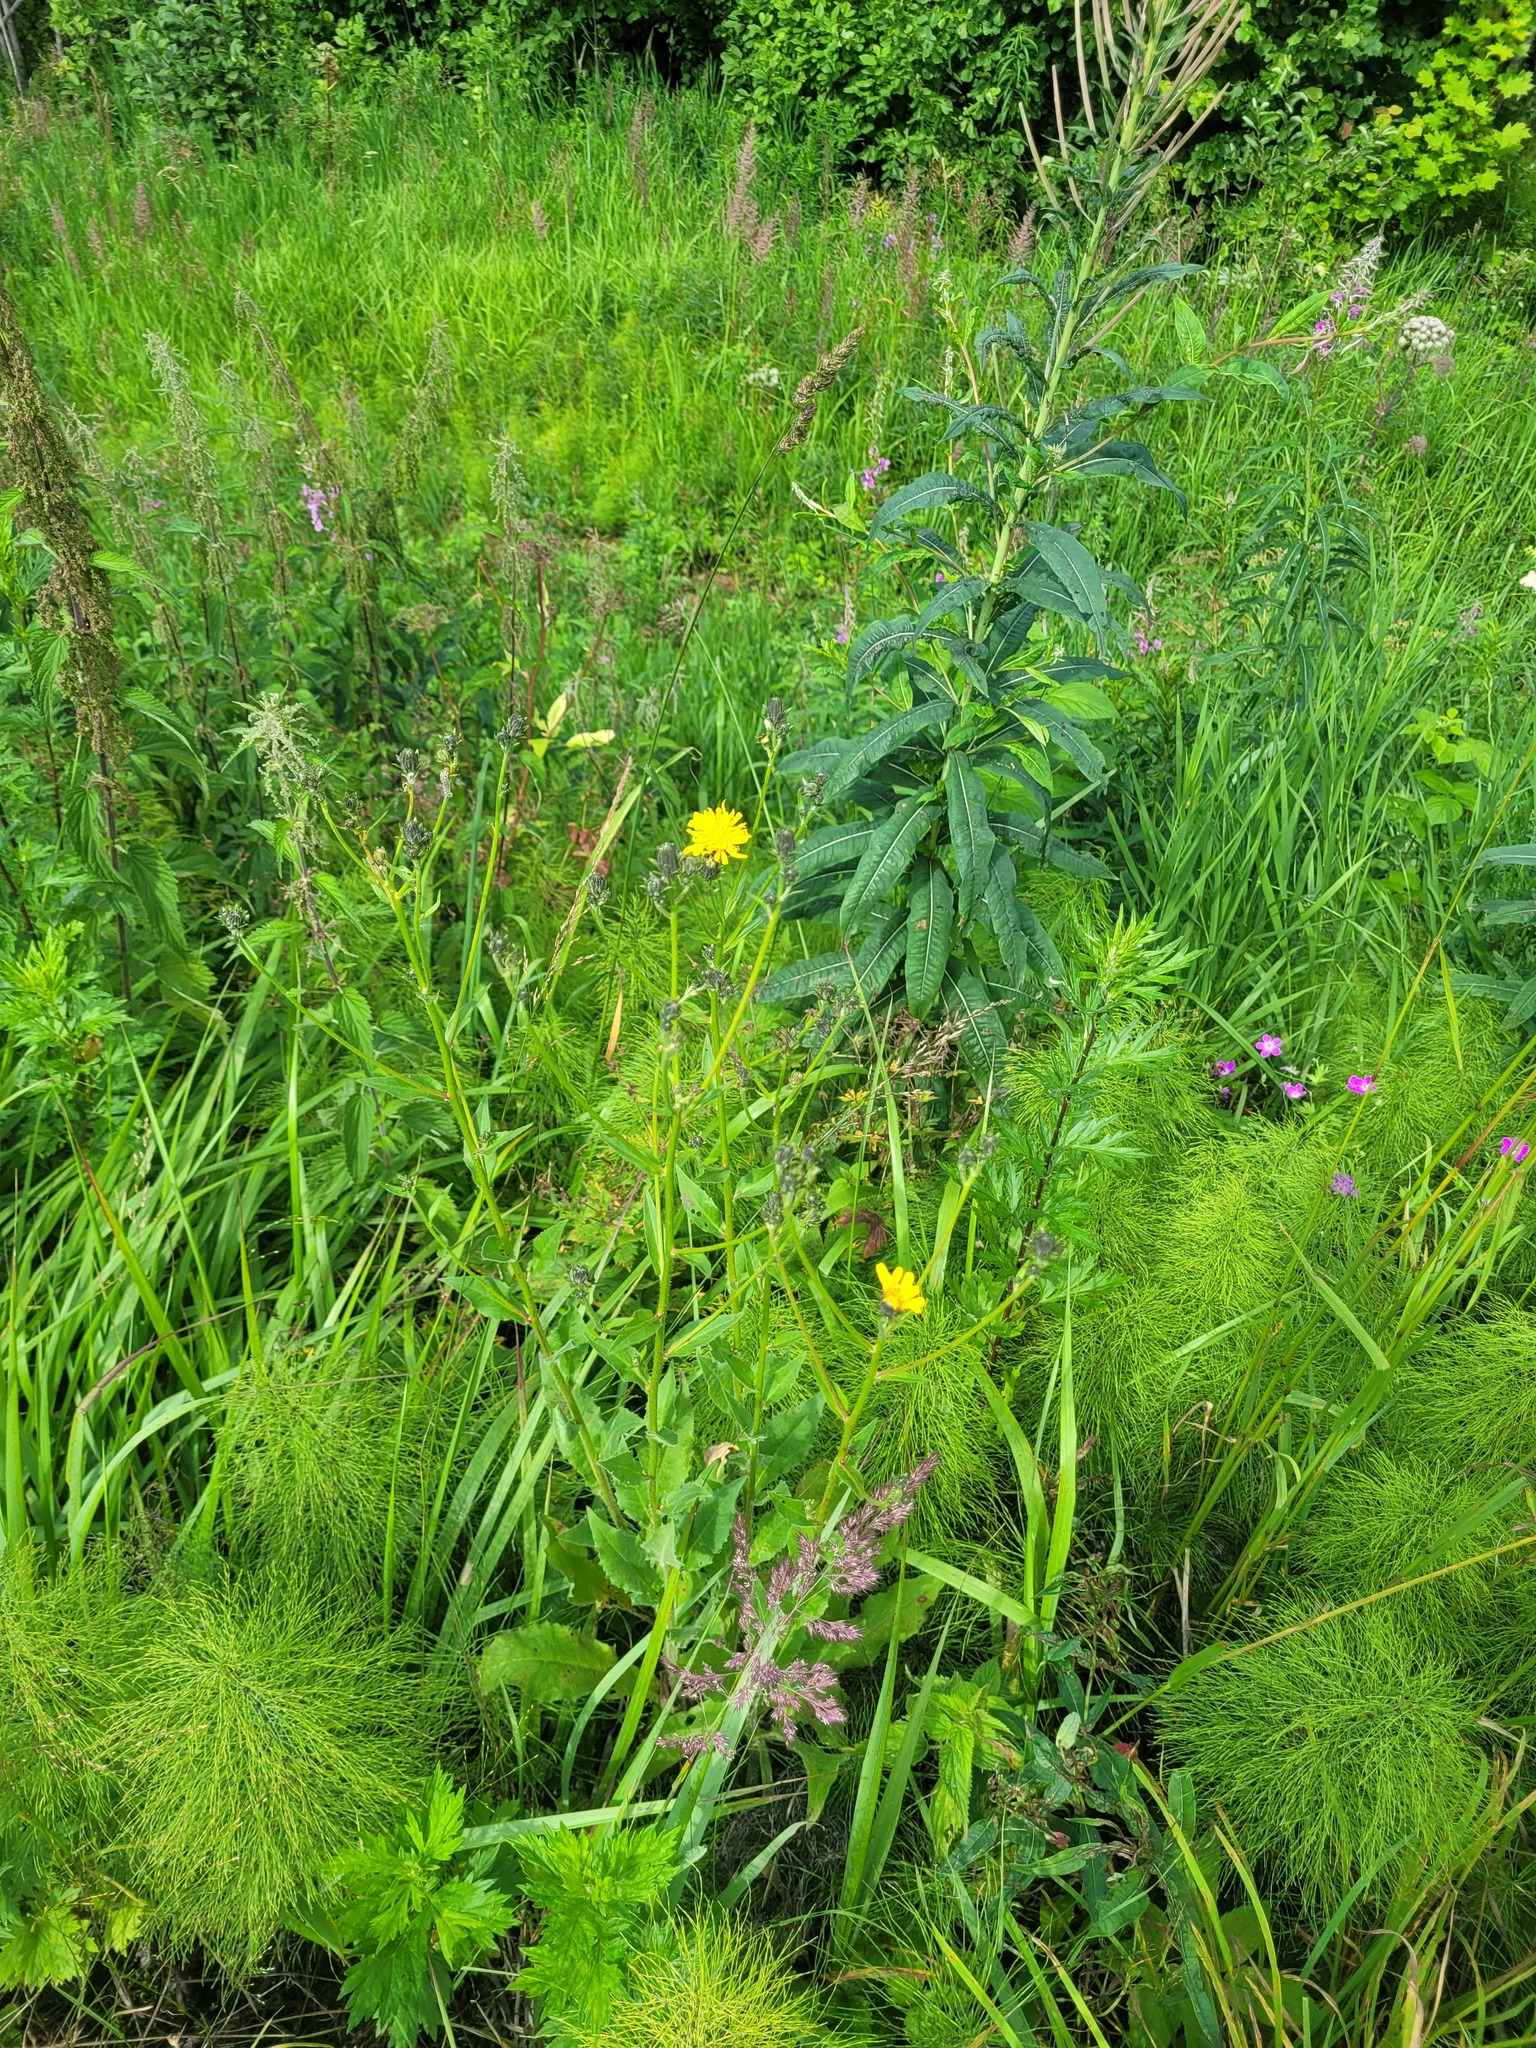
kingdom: Plantae
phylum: Tracheophyta
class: Magnoliopsida
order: Asterales
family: Asteraceae
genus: Picris
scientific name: Picris hieracioides
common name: Hawkweed oxtongue
